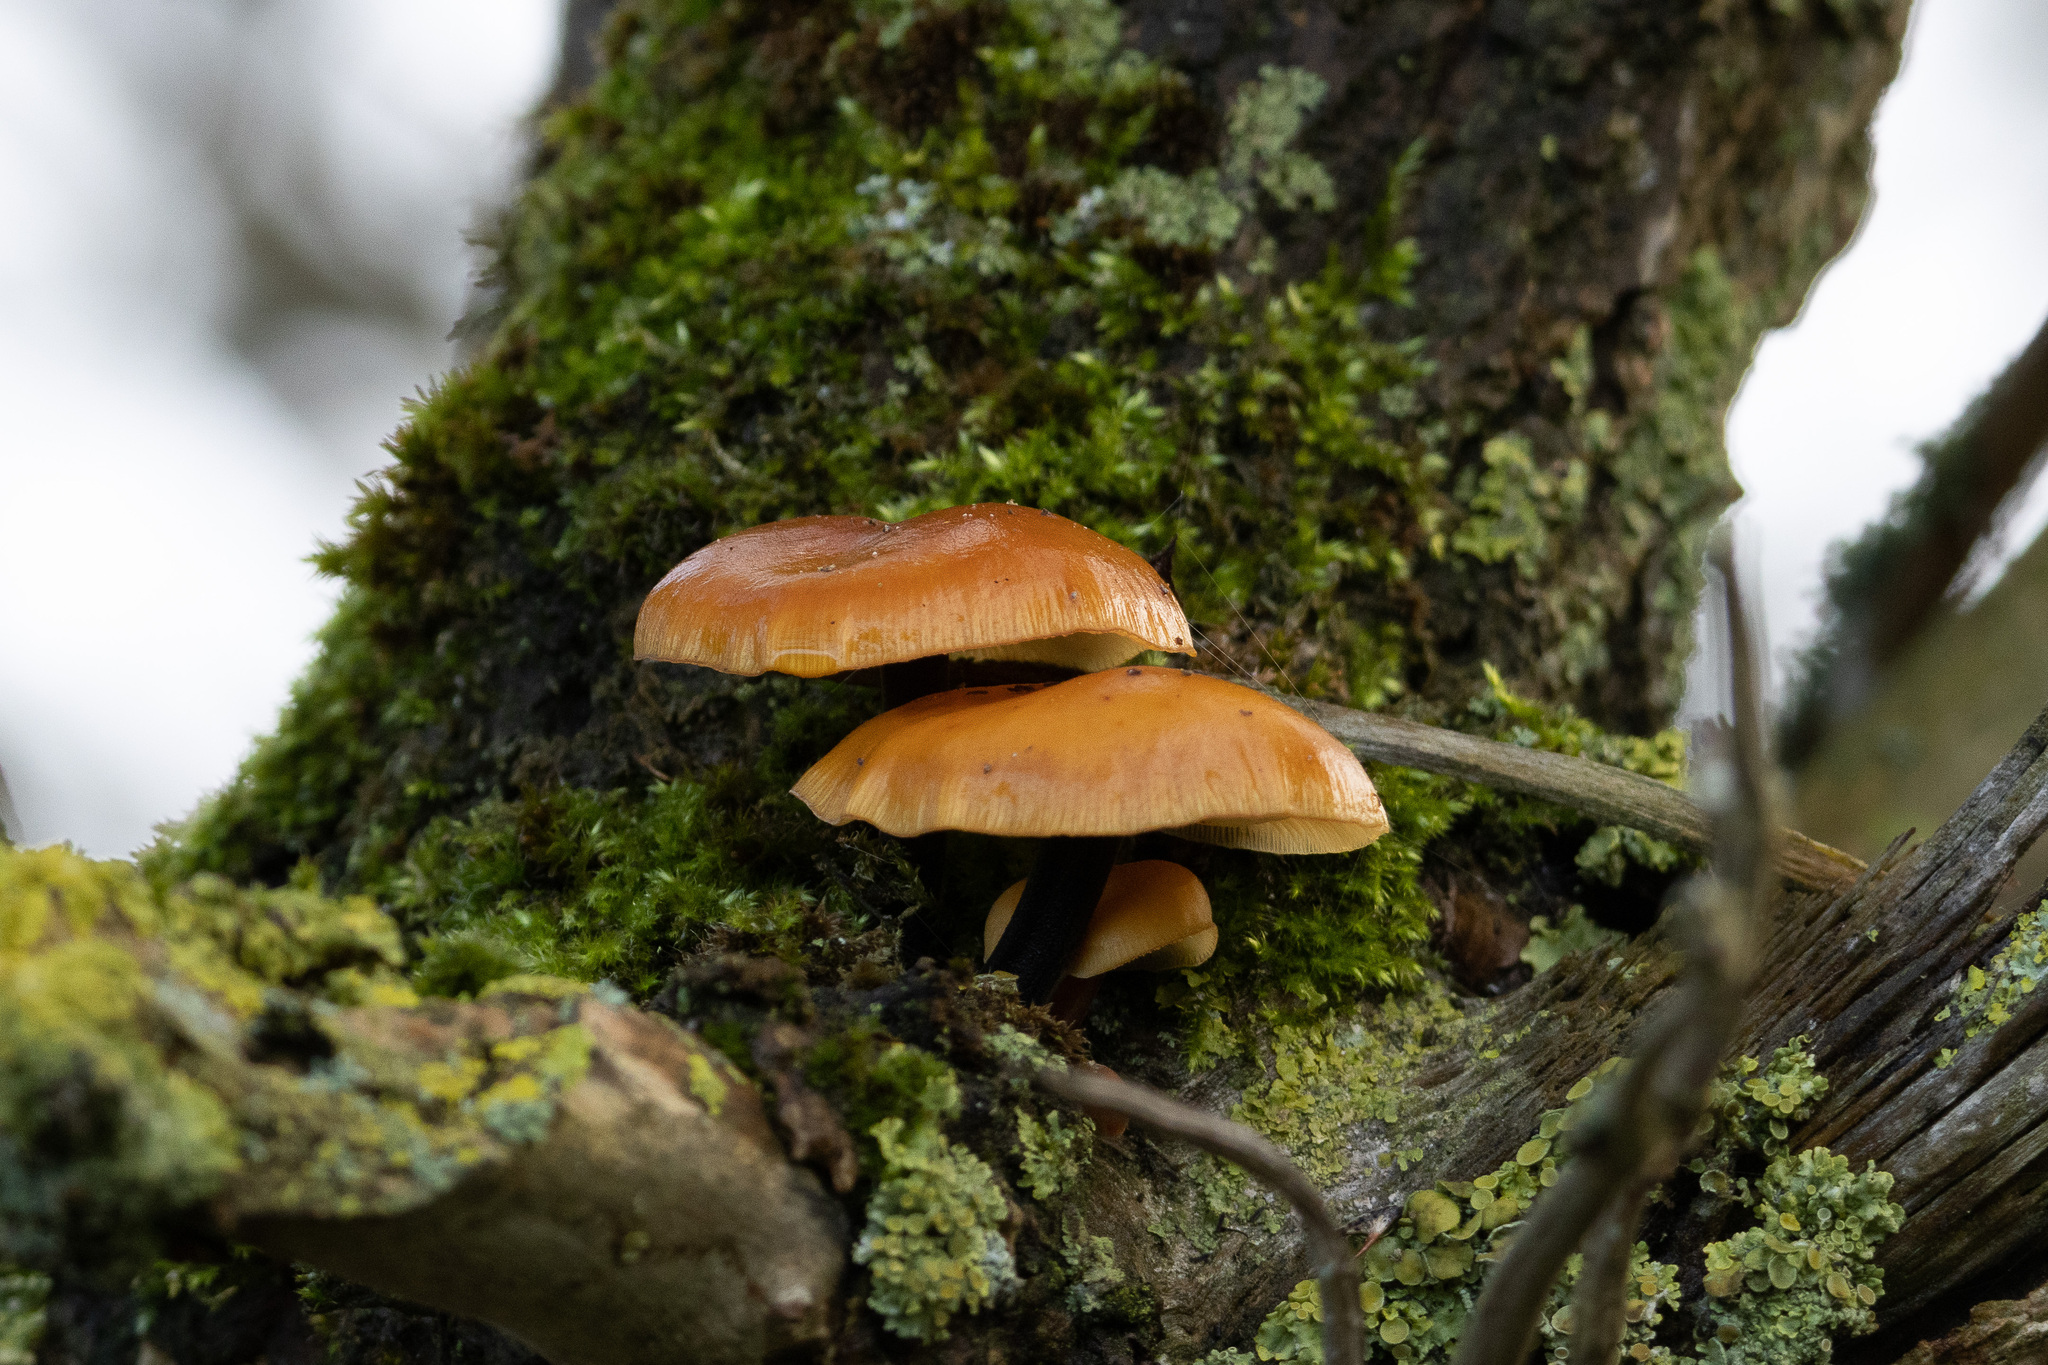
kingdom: Fungi
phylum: Basidiomycota
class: Agaricomycetes
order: Agaricales
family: Physalacriaceae
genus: Flammulina
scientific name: Flammulina
